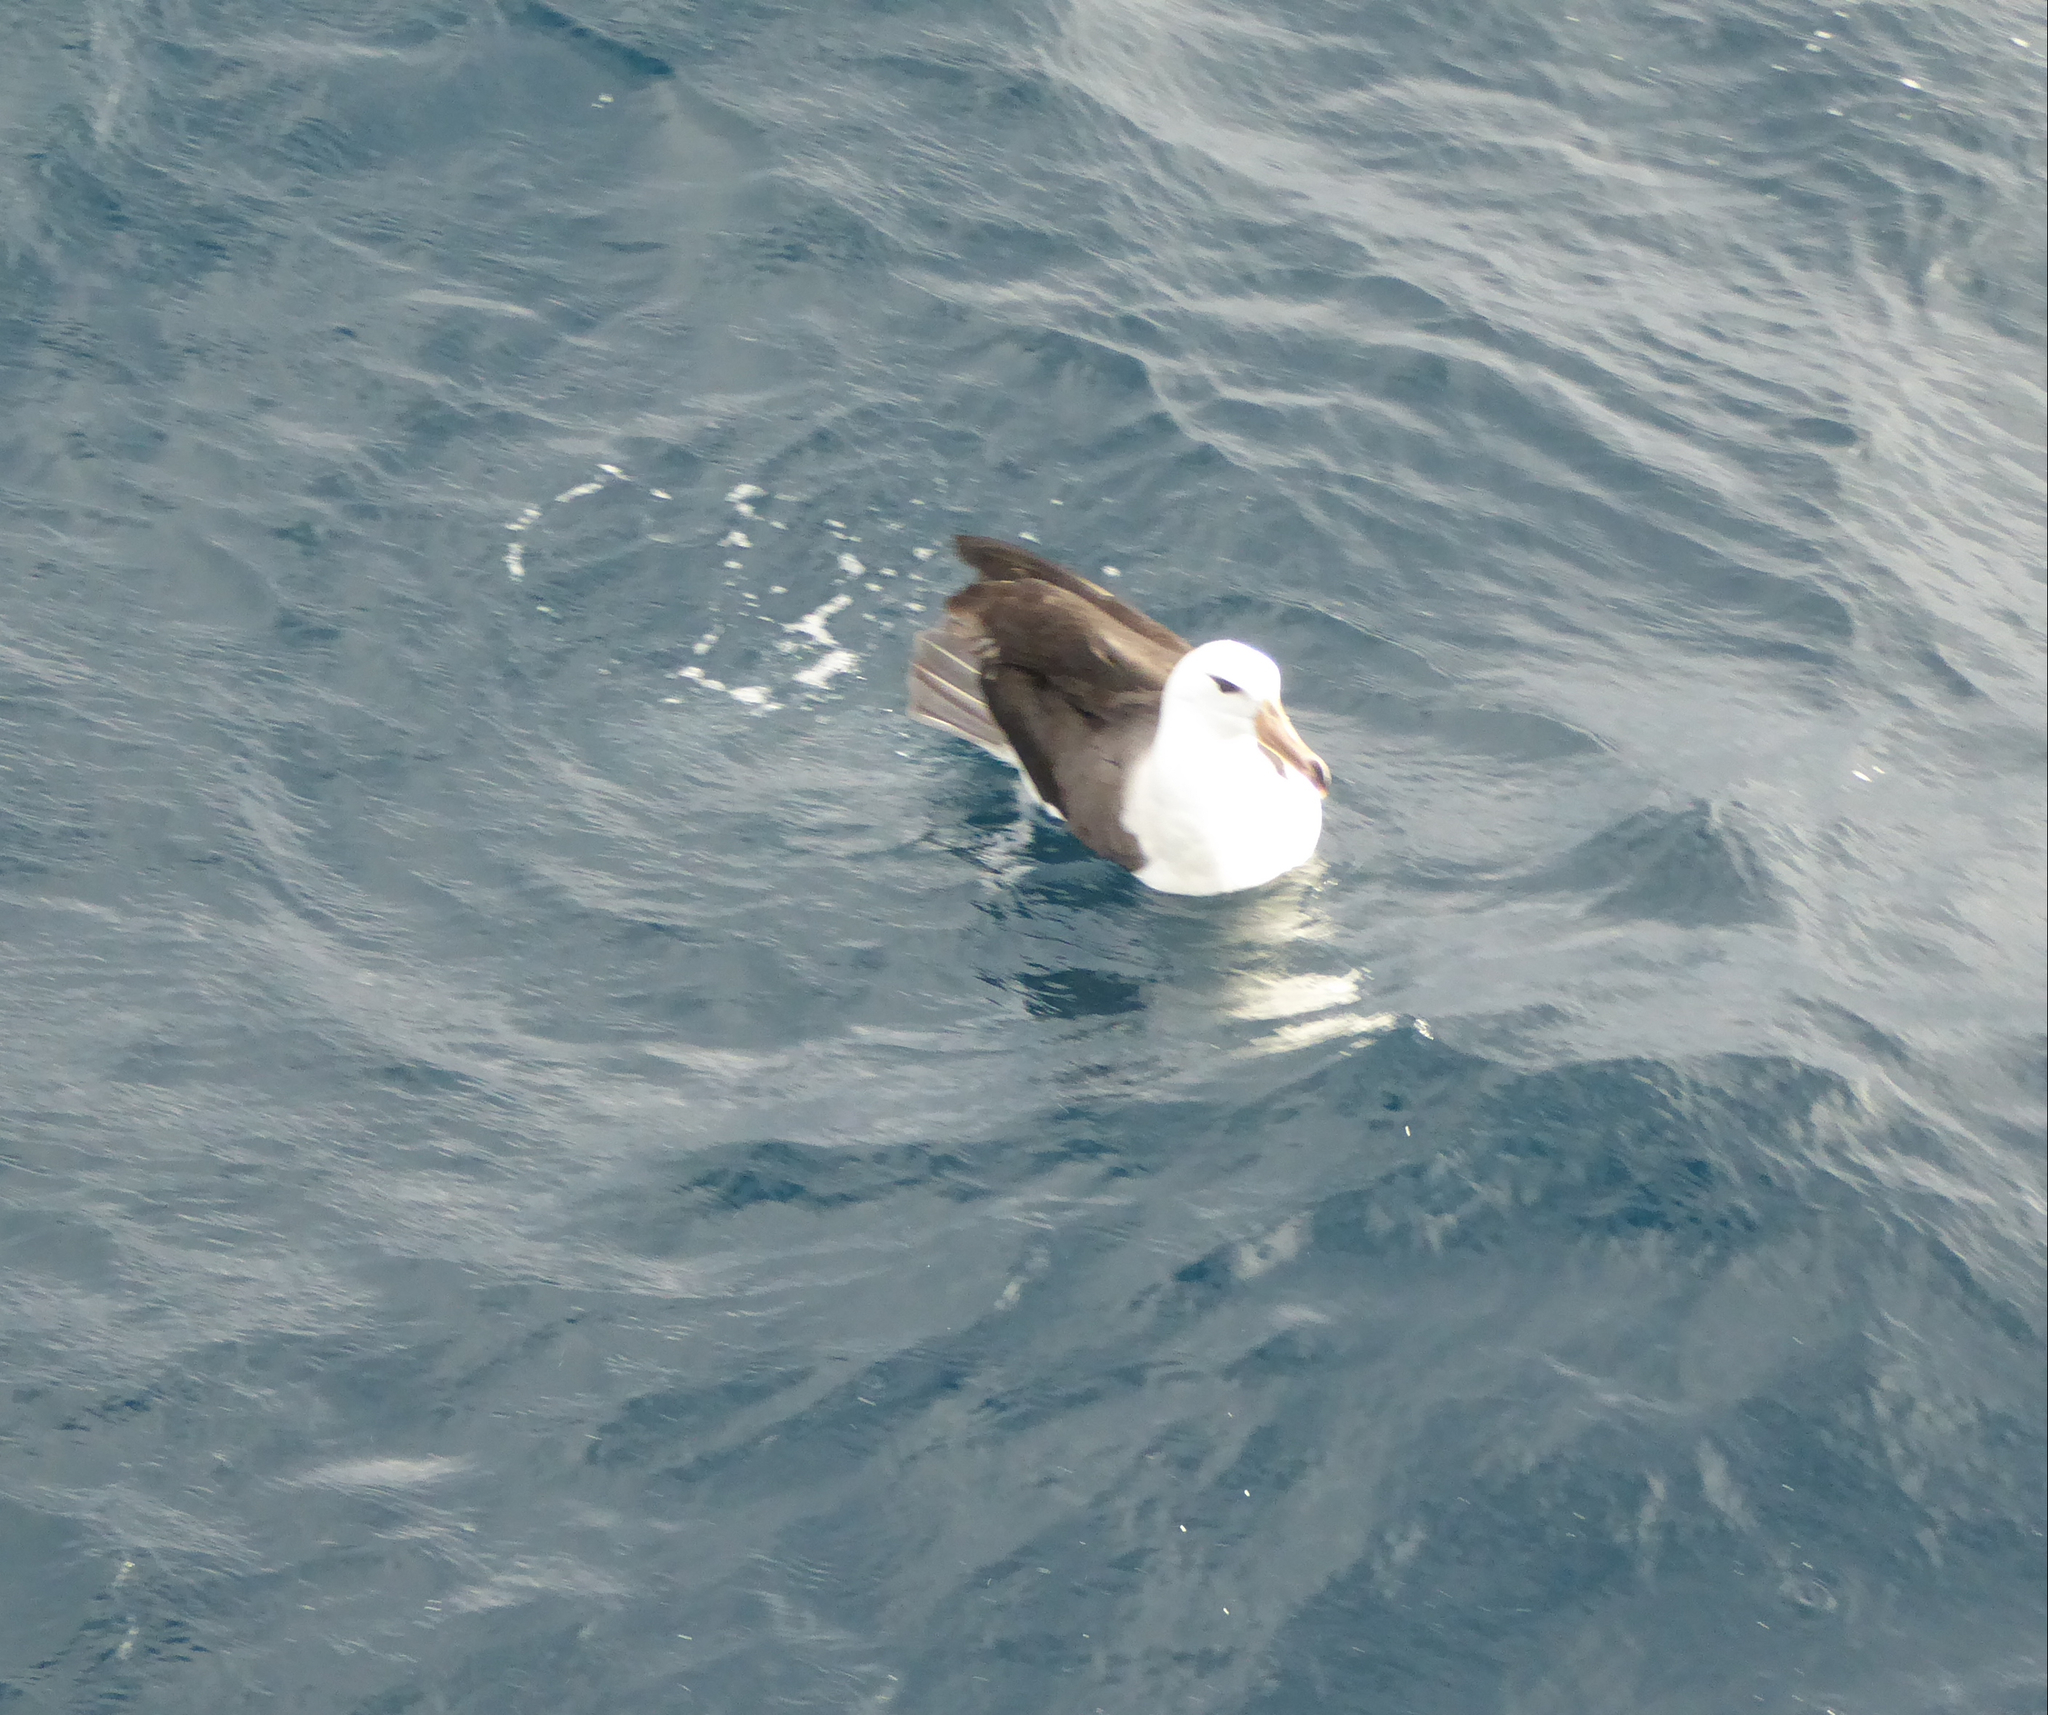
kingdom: Animalia
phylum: Chordata
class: Aves
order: Procellariiformes
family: Diomedeidae
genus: Thalassarche
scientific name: Thalassarche melanophris
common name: Black-browed albatross
